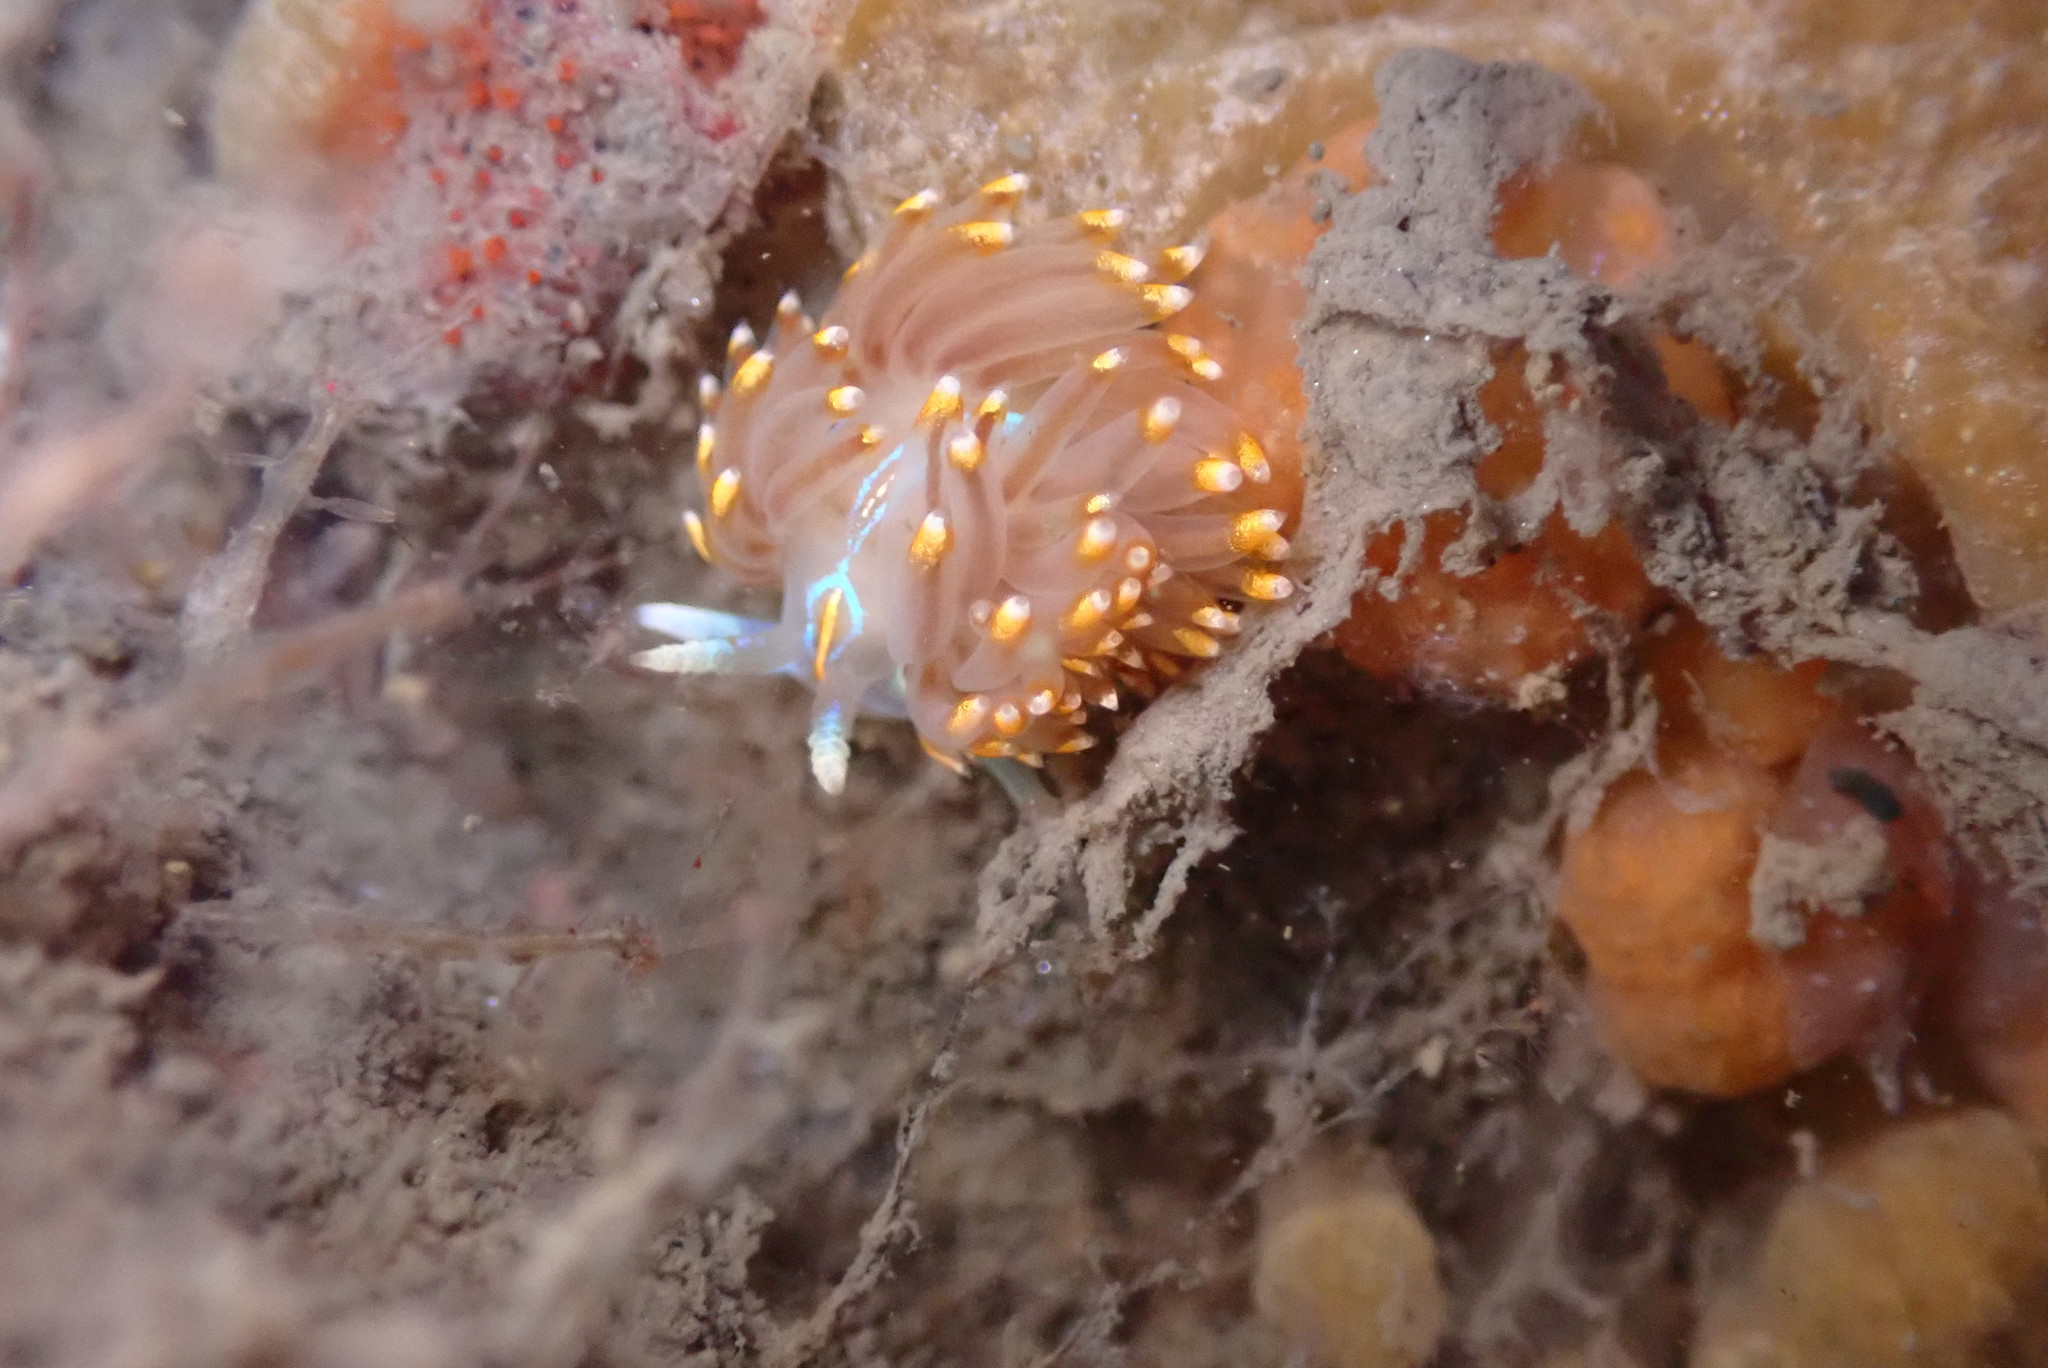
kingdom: Animalia
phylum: Mollusca
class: Gastropoda
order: Nudibranchia
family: Myrrhinidae
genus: Hermissenda
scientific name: Hermissenda opalescens
